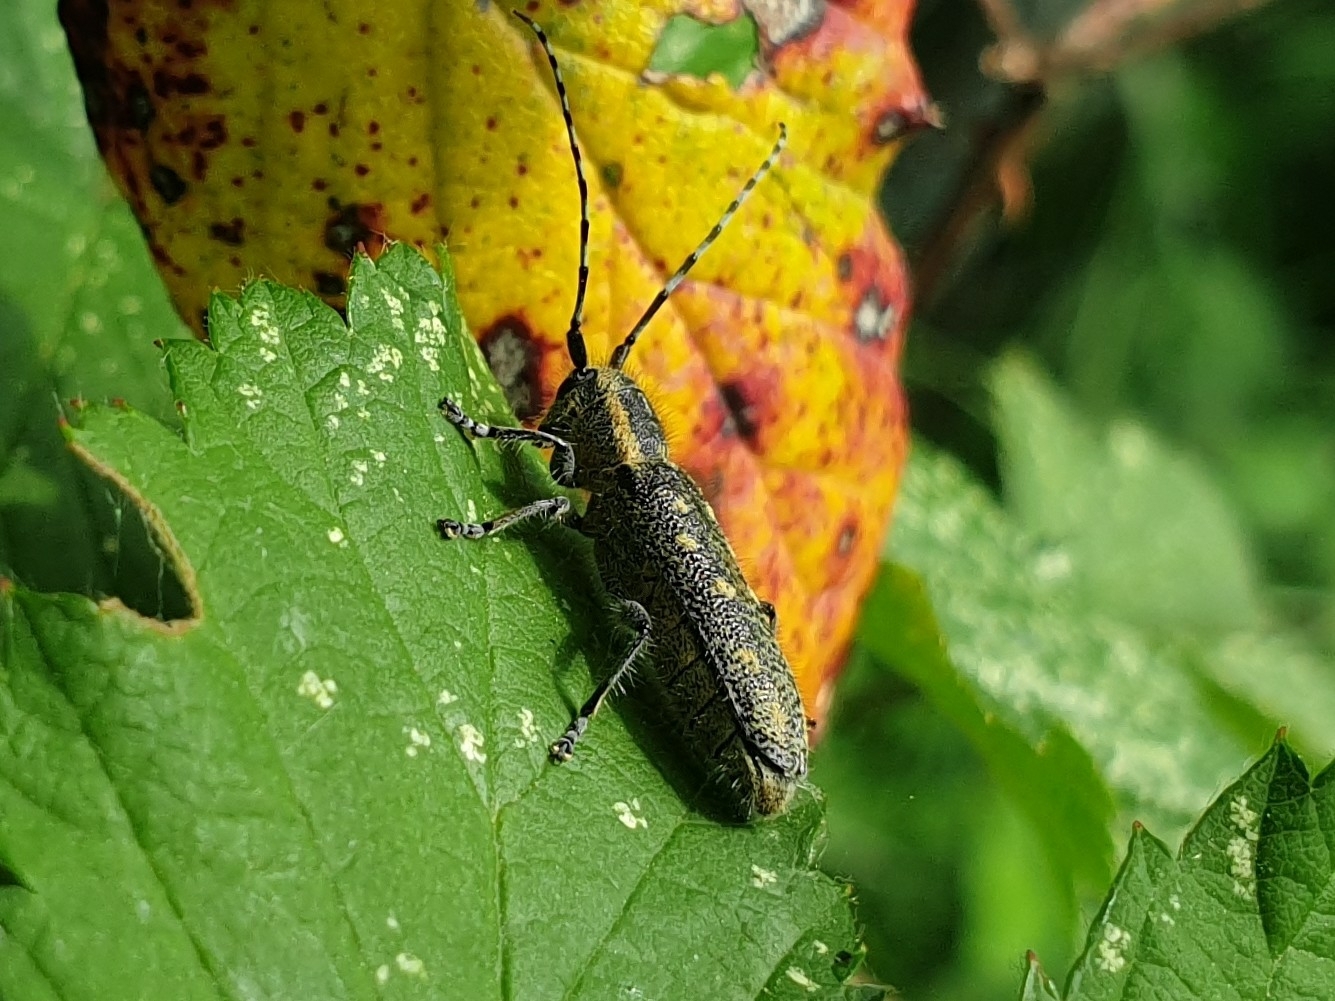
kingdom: Animalia
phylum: Arthropoda
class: Insecta
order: Coleoptera
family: Cerambycidae
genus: Saperda
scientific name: Saperda populnea
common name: Small poplar borer
